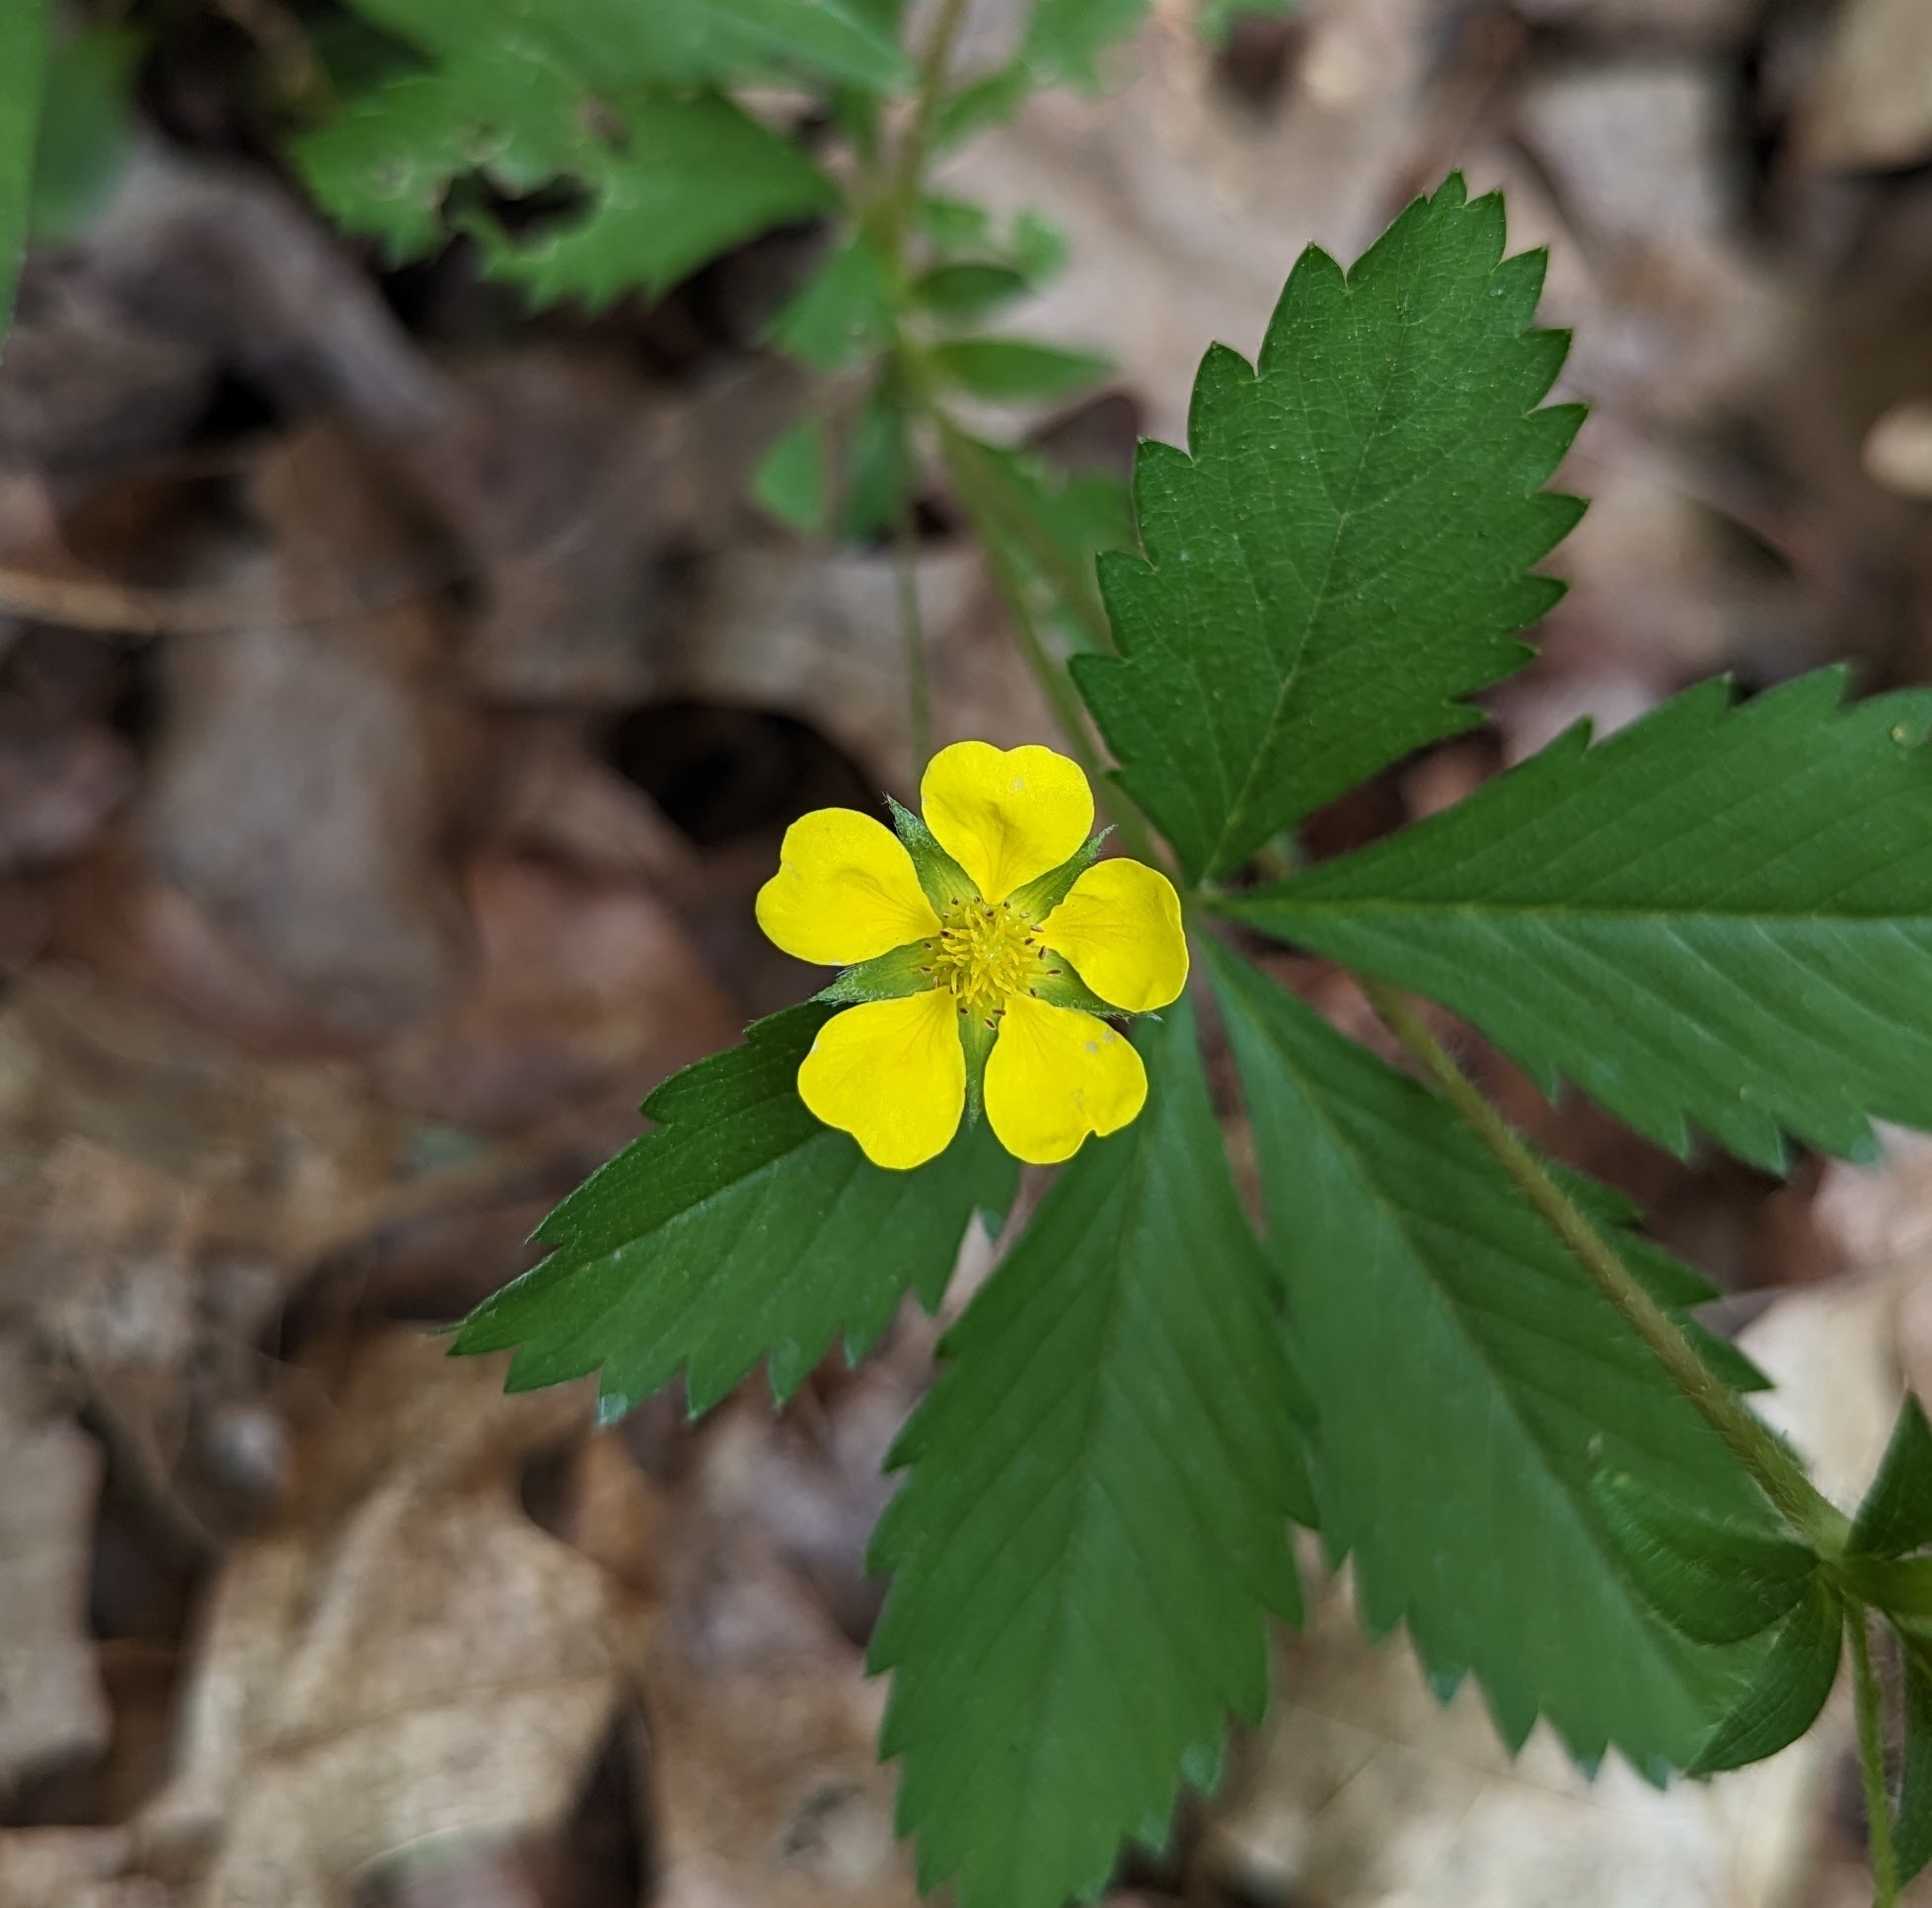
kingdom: Plantae
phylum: Tracheophyta
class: Magnoliopsida
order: Rosales
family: Rosaceae
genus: Potentilla
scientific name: Potentilla simplex
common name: Old field cinquefoil
